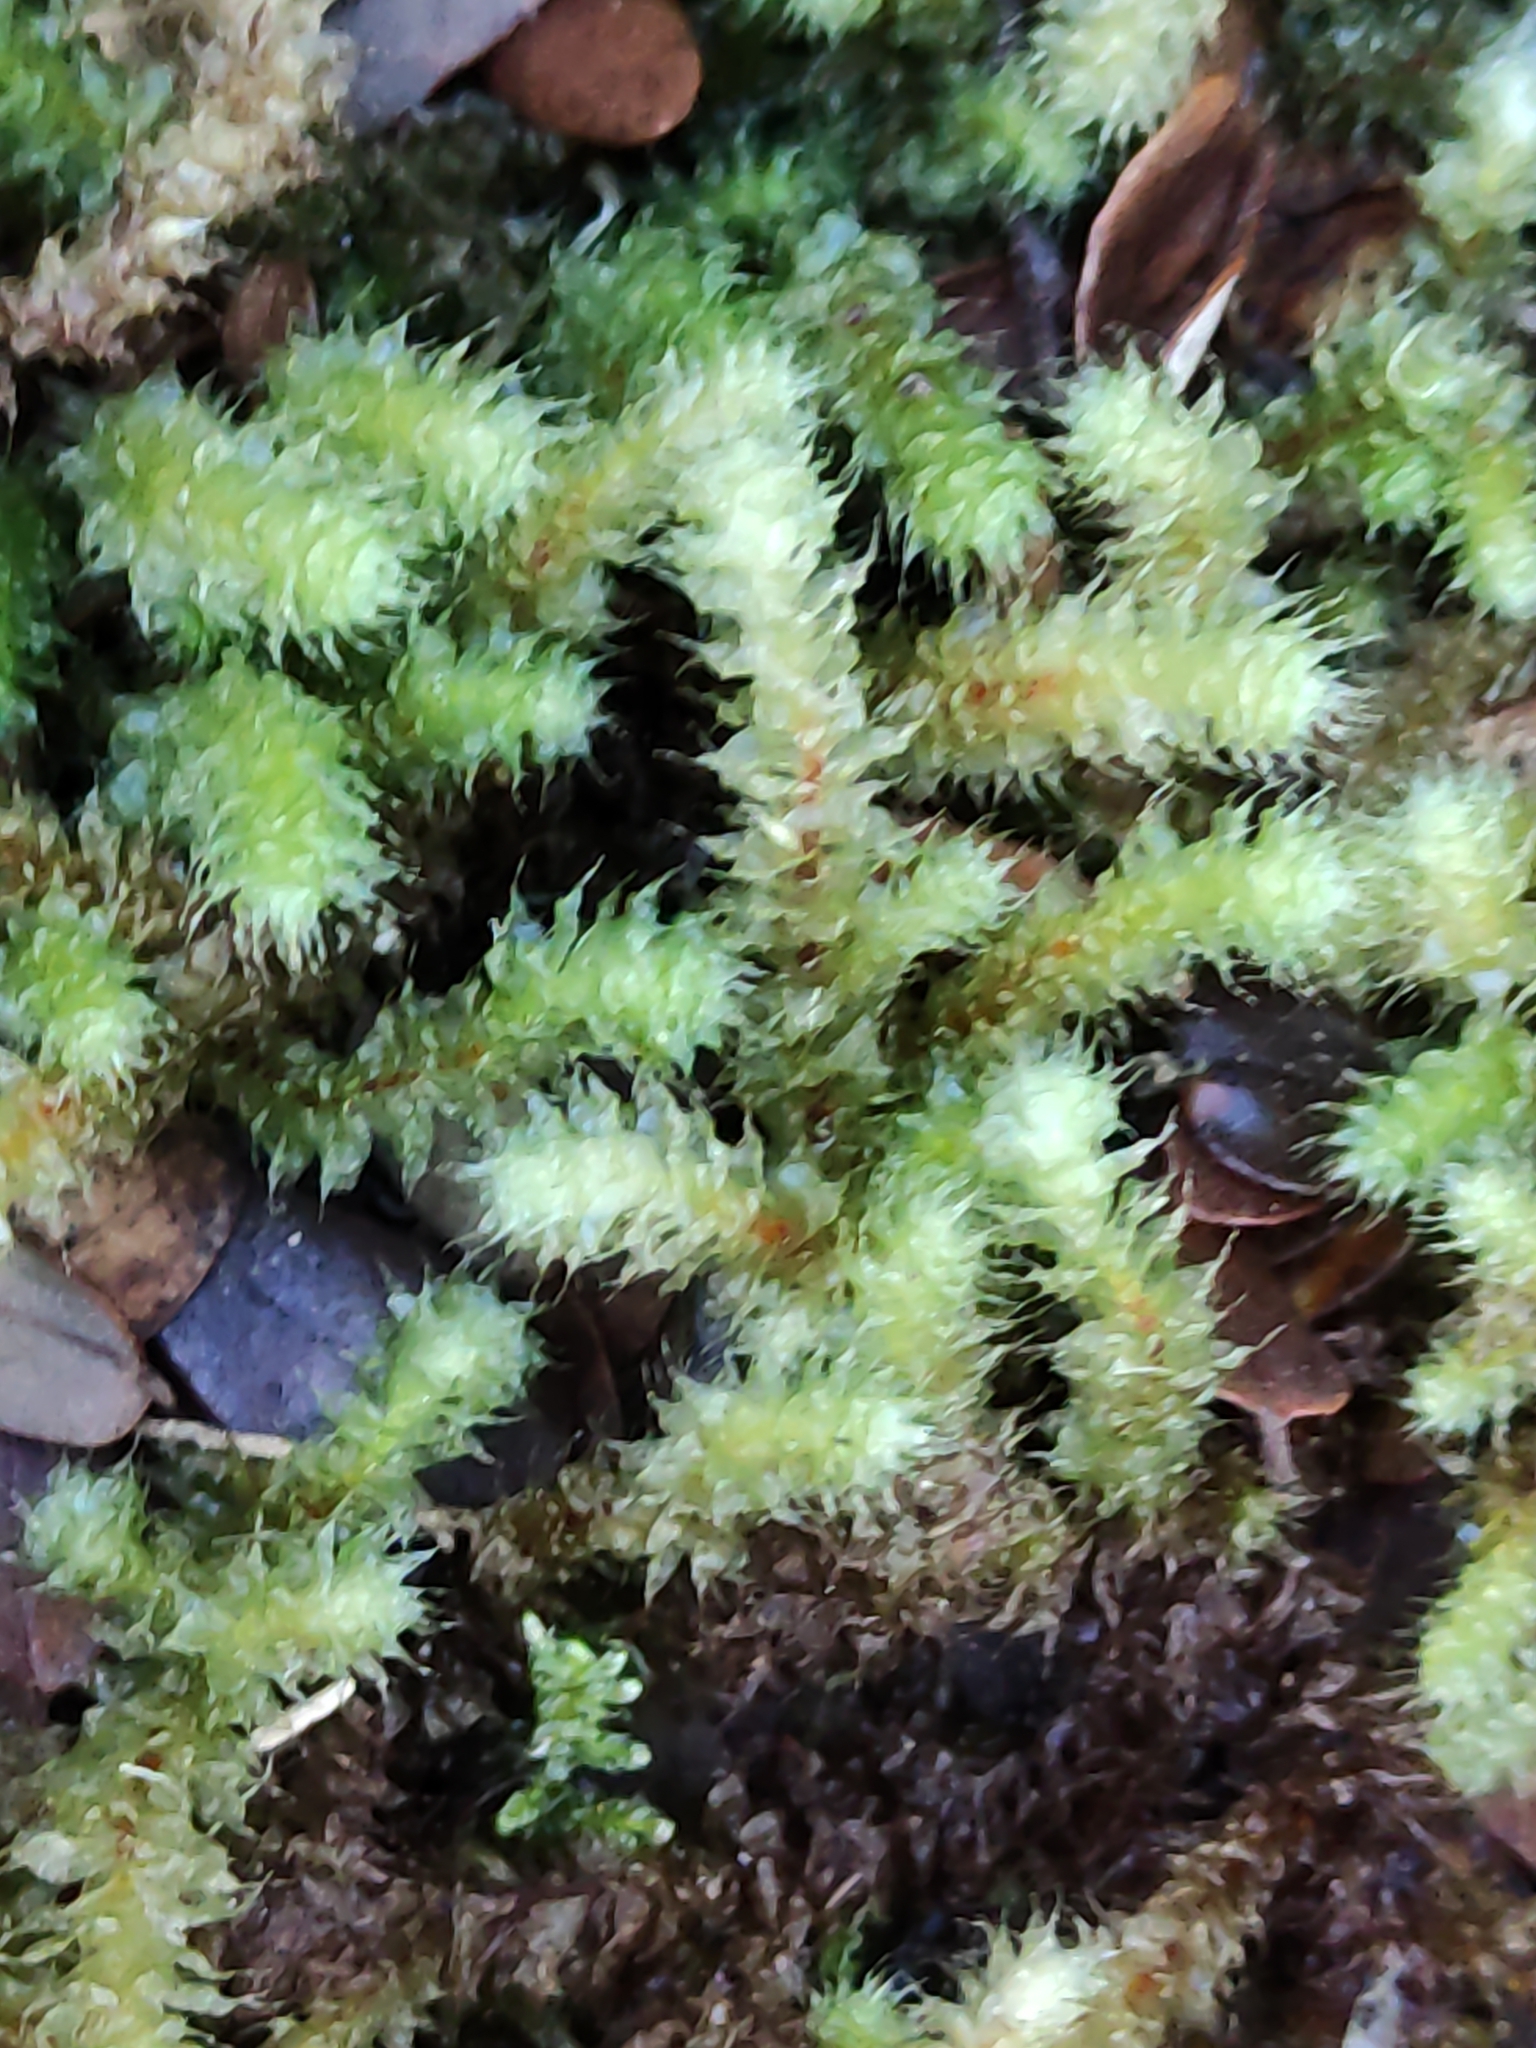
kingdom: Plantae
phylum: Bryophyta
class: Bryopsida
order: Ptychomniales
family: Ptychomniaceae
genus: Ptychomnion
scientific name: Ptychomnion aciculare
